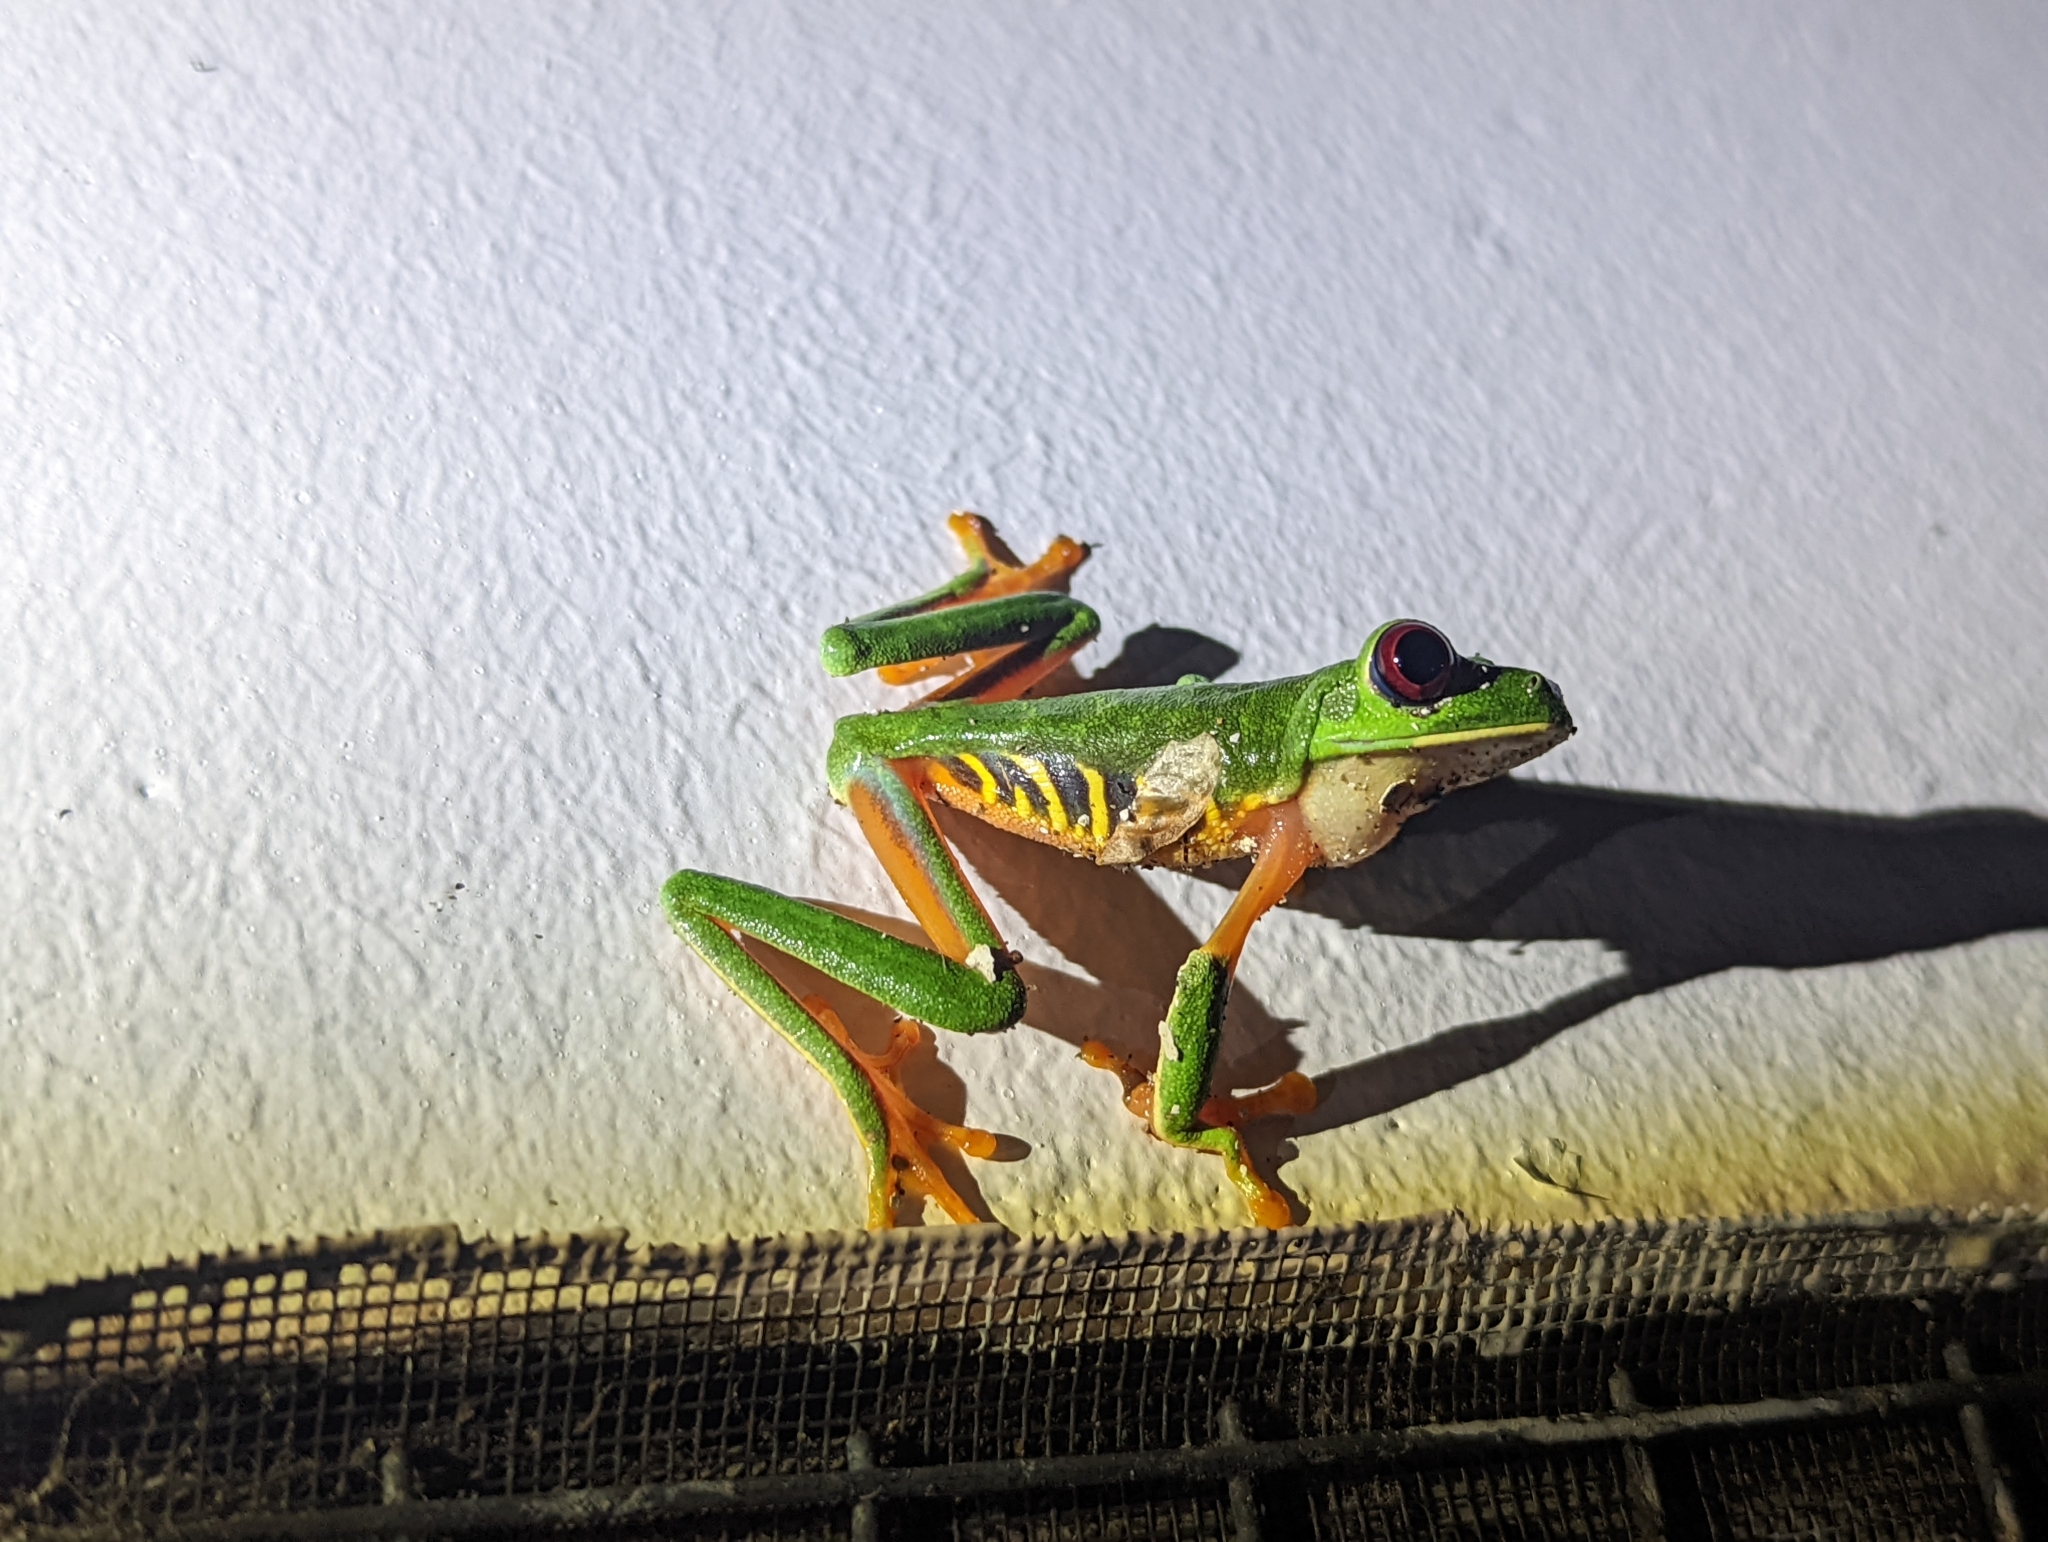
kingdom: Animalia
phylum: Chordata
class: Amphibia
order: Anura
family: Phyllomedusidae
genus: Agalychnis
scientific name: Agalychnis callidryas
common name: Red-eyed treefrog
